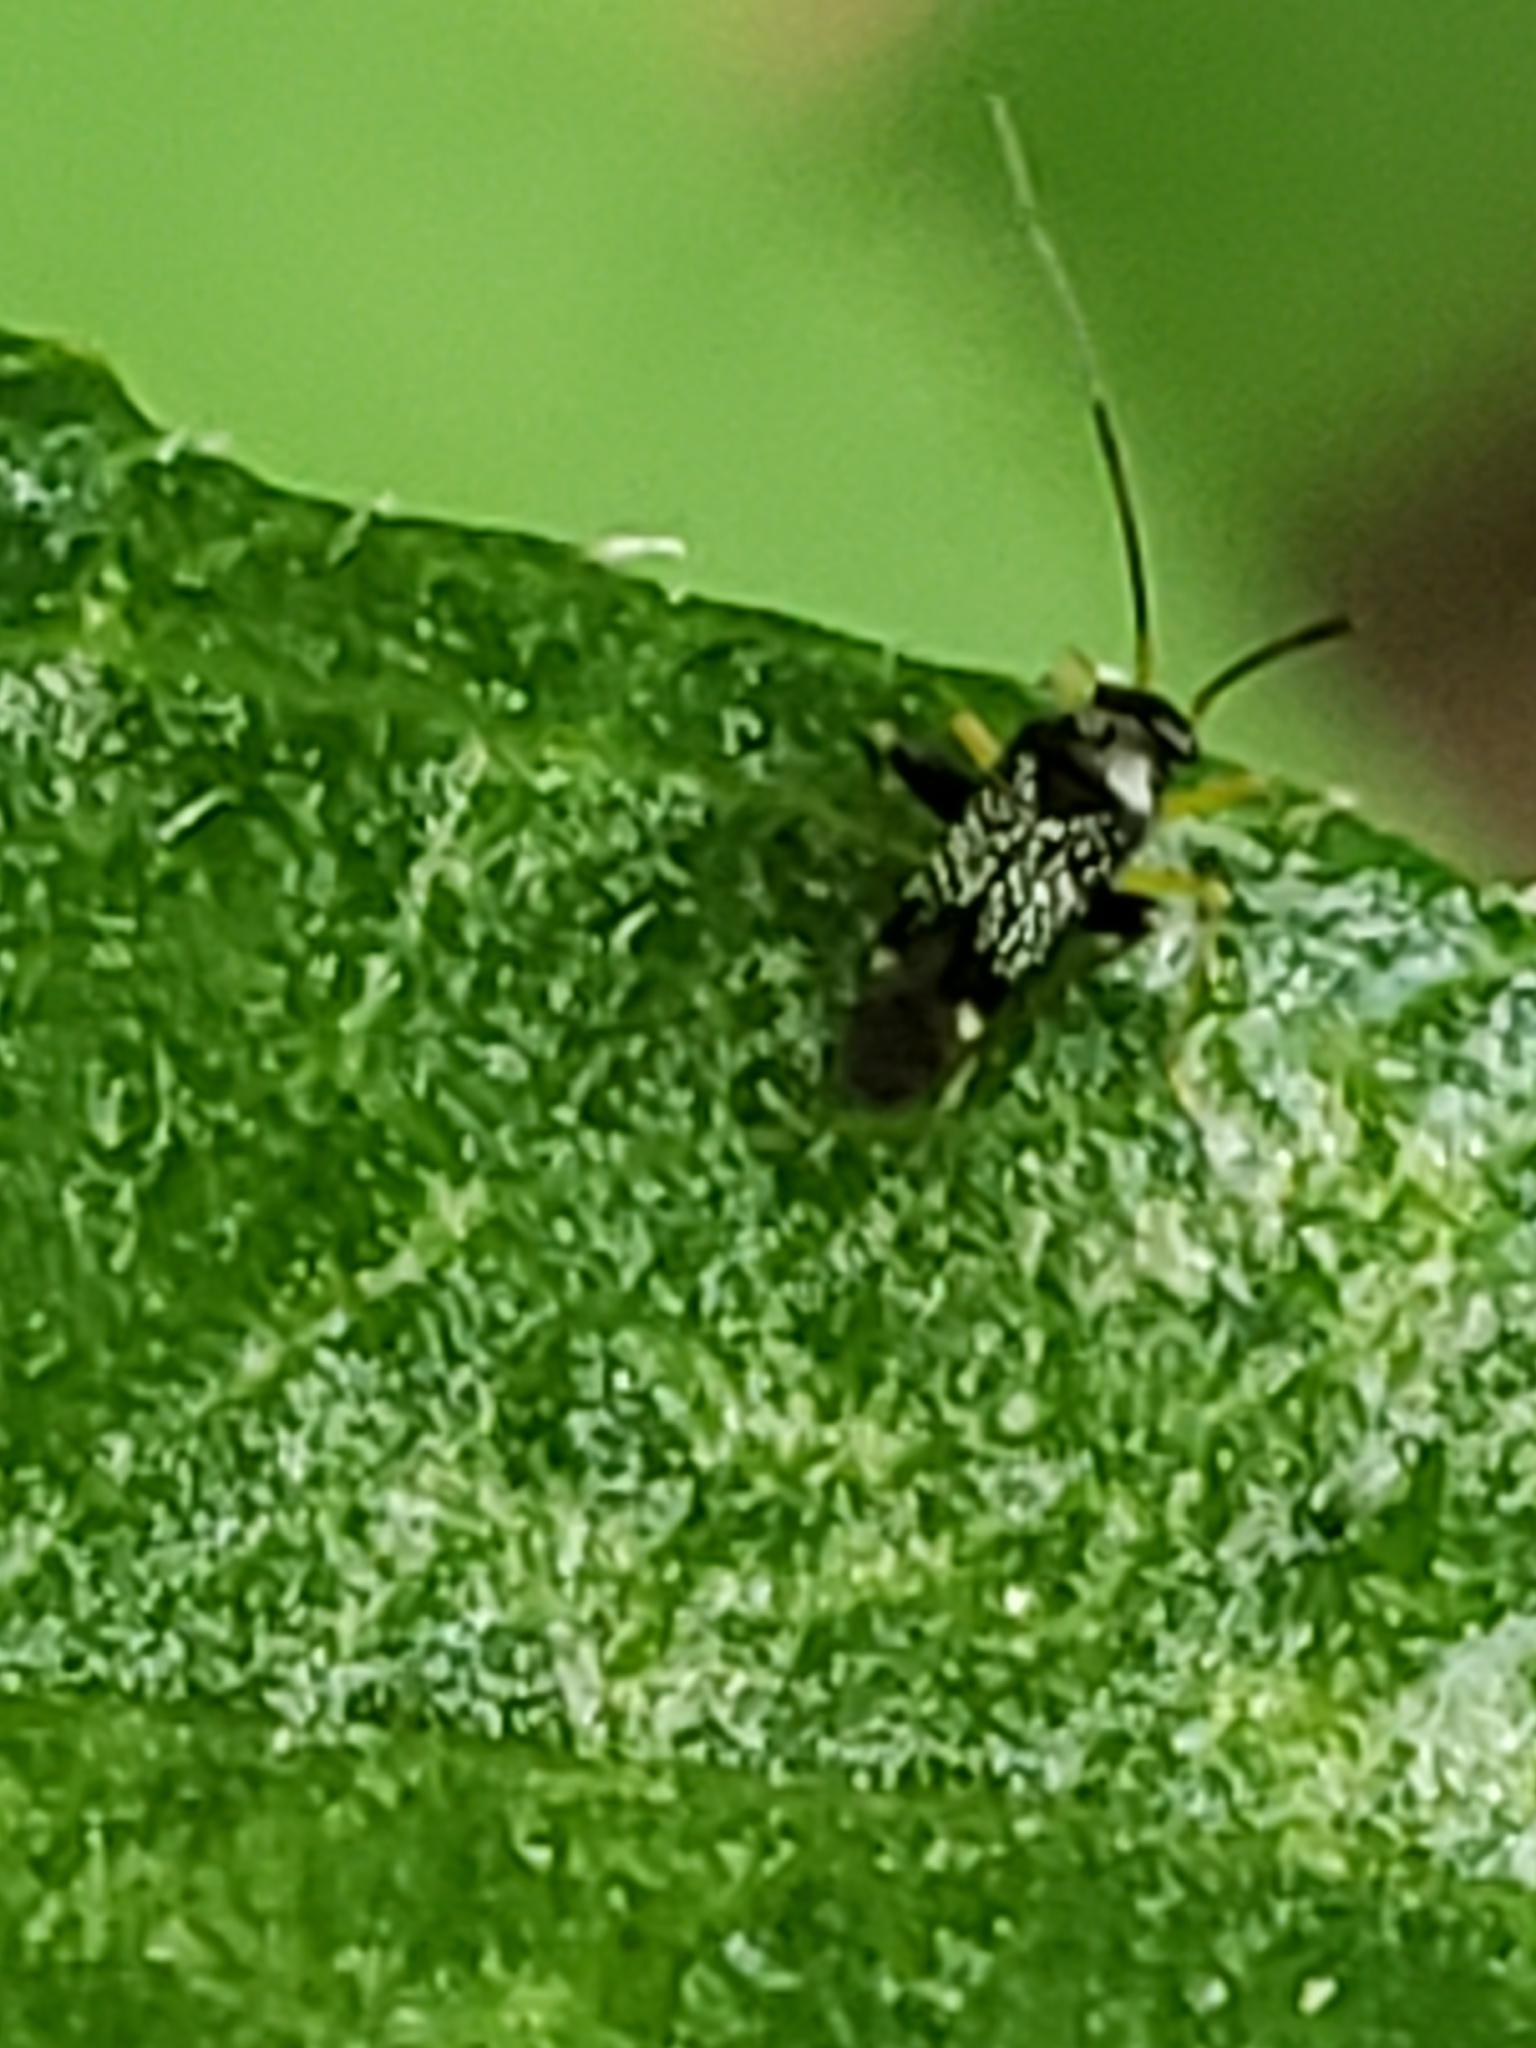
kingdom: Animalia
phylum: Arthropoda
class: Insecta
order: Hemiptera
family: Miridae
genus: Microtechnites
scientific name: Microtechnites bractatus
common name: Garden fleahopper
